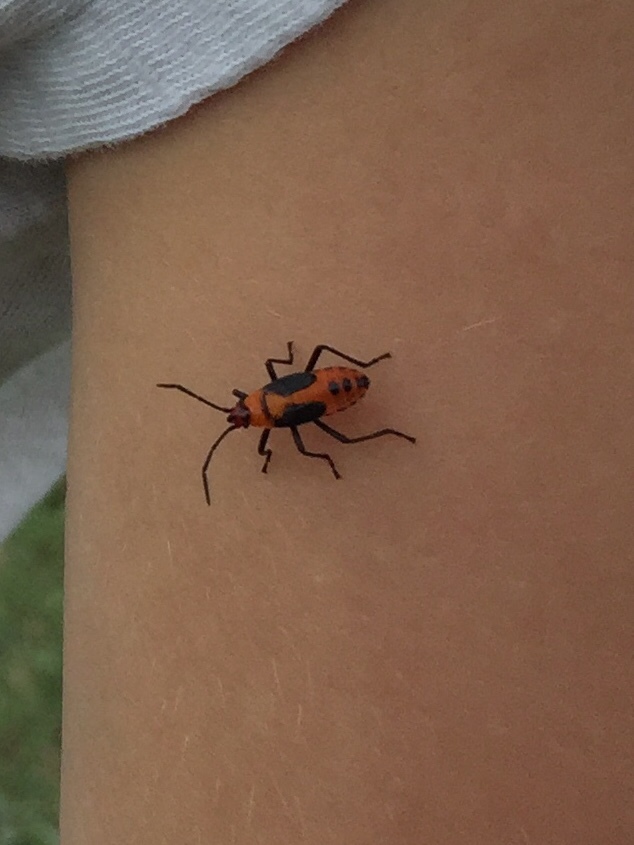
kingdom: Animalia
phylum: Arthropoda
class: Insecta
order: Hemiptera
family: Lygaeidae
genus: Oncopeltus
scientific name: Oncopeltus fasciatus
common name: Large milkweed bug
